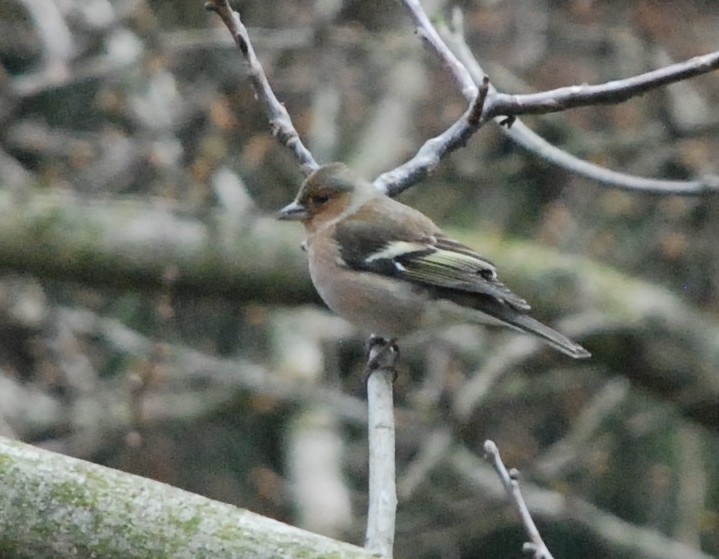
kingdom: Animalia
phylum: Chordata
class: Aves
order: Passeriformes
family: Fringillidae
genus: Fringilla
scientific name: Fringilla coelebs
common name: Common chaffinch
